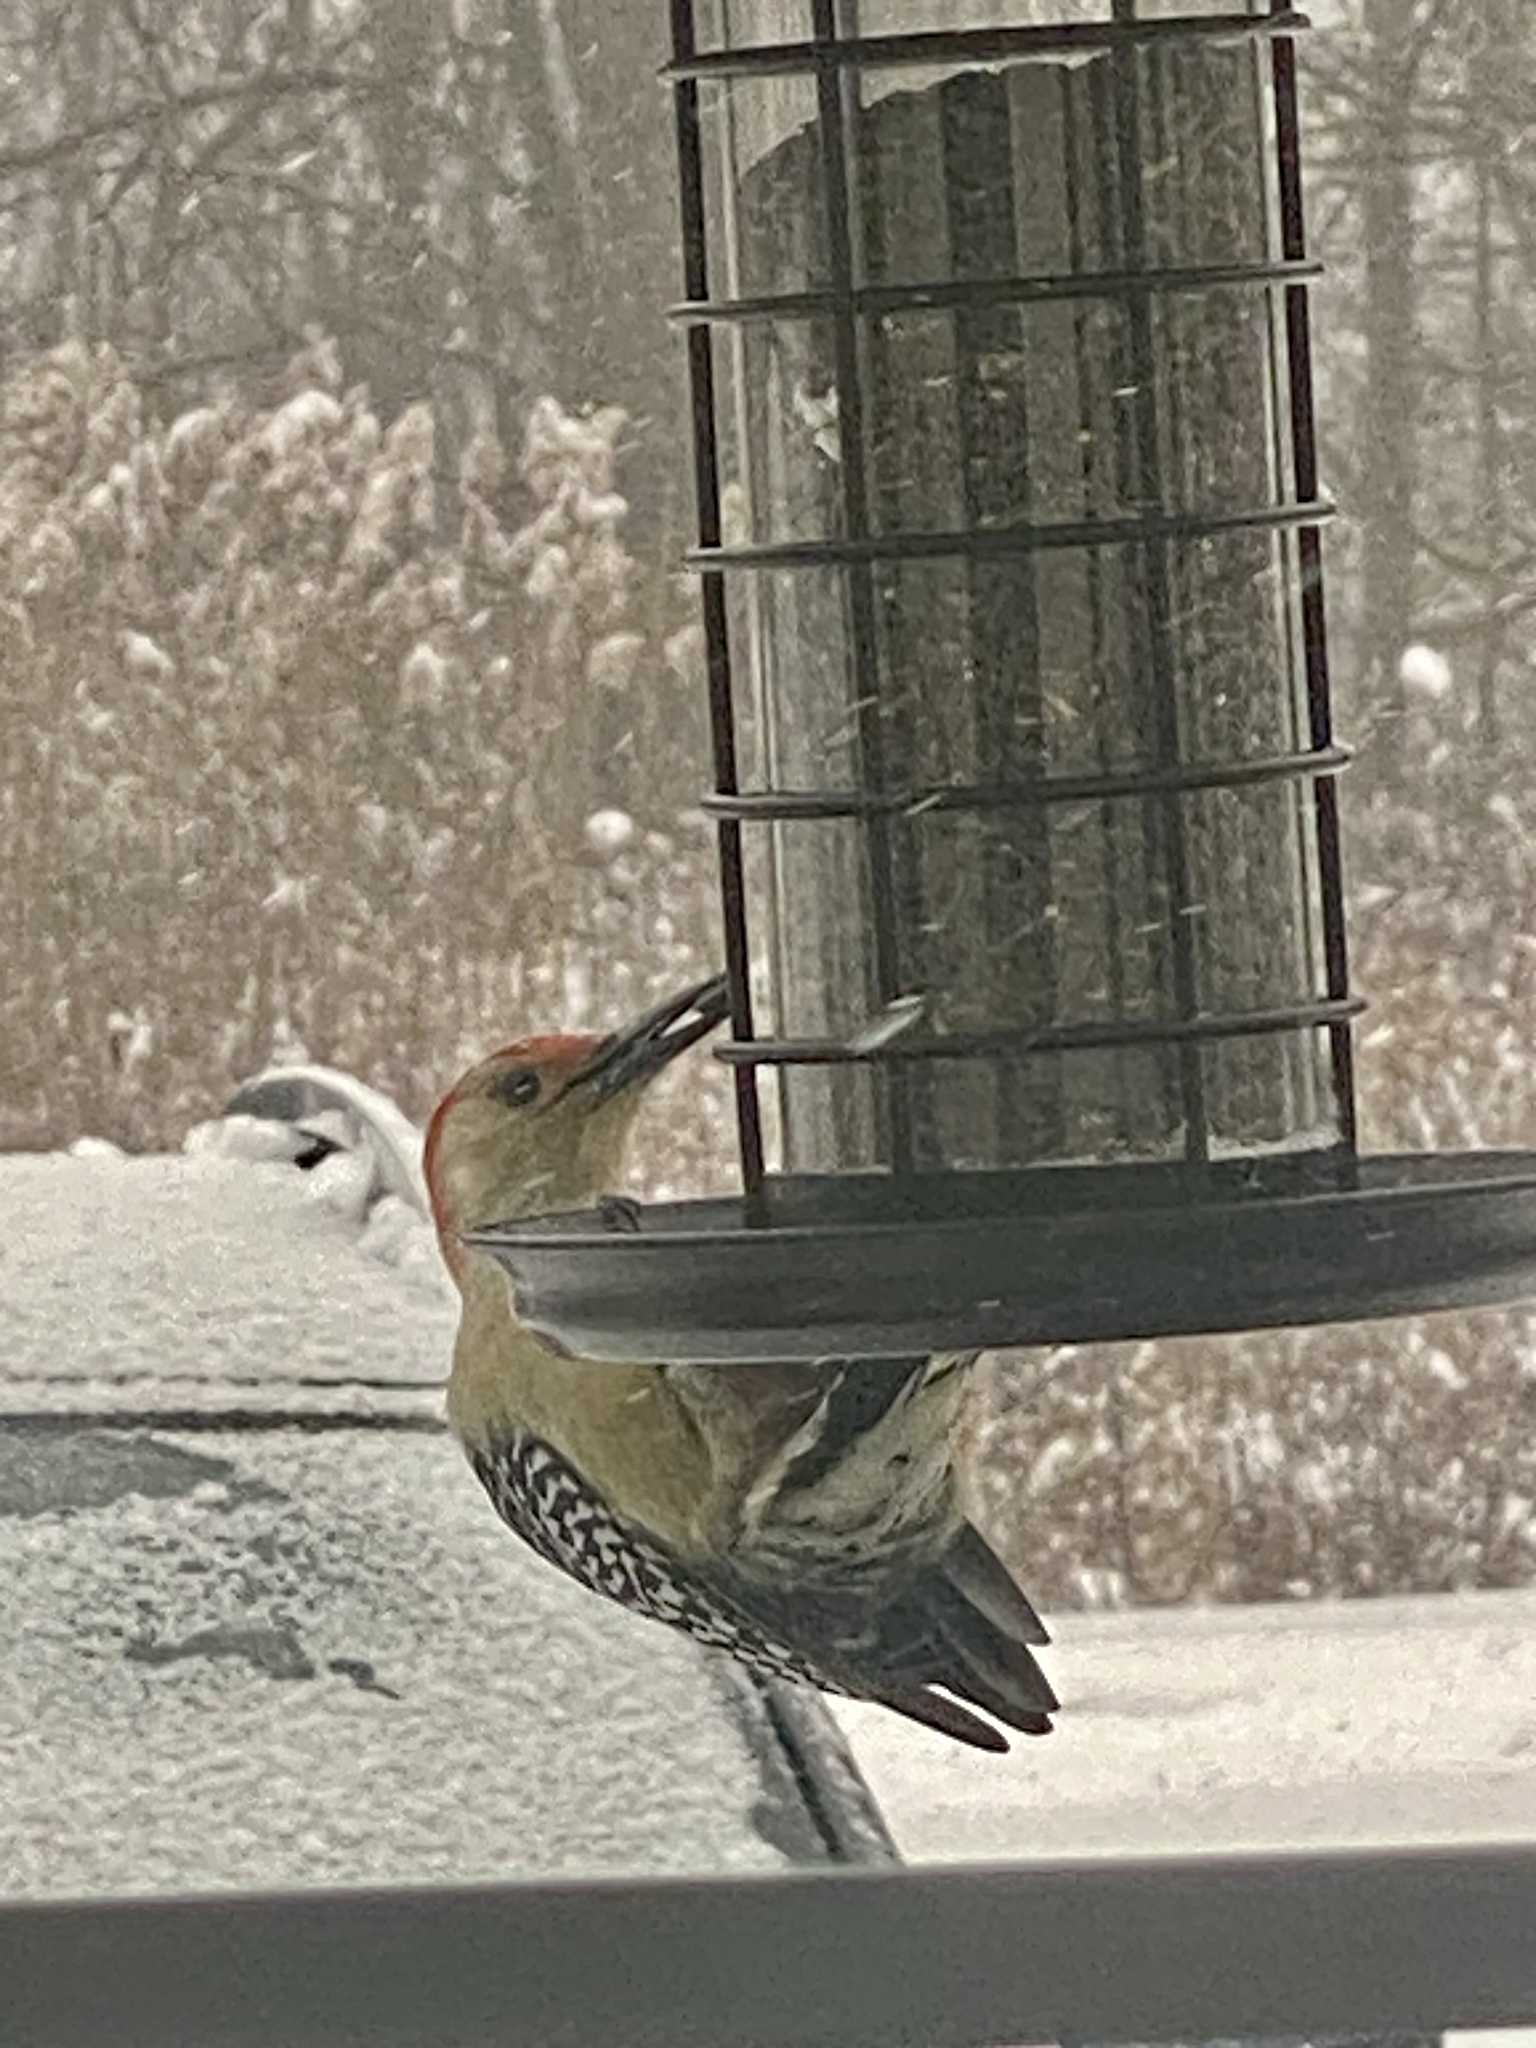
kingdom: Animalia
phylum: Chordata
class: Aves
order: Piciformes
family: Picidae
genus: Melanerpes
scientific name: Melanerpes carolinus
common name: Red-bellied woodpecker
